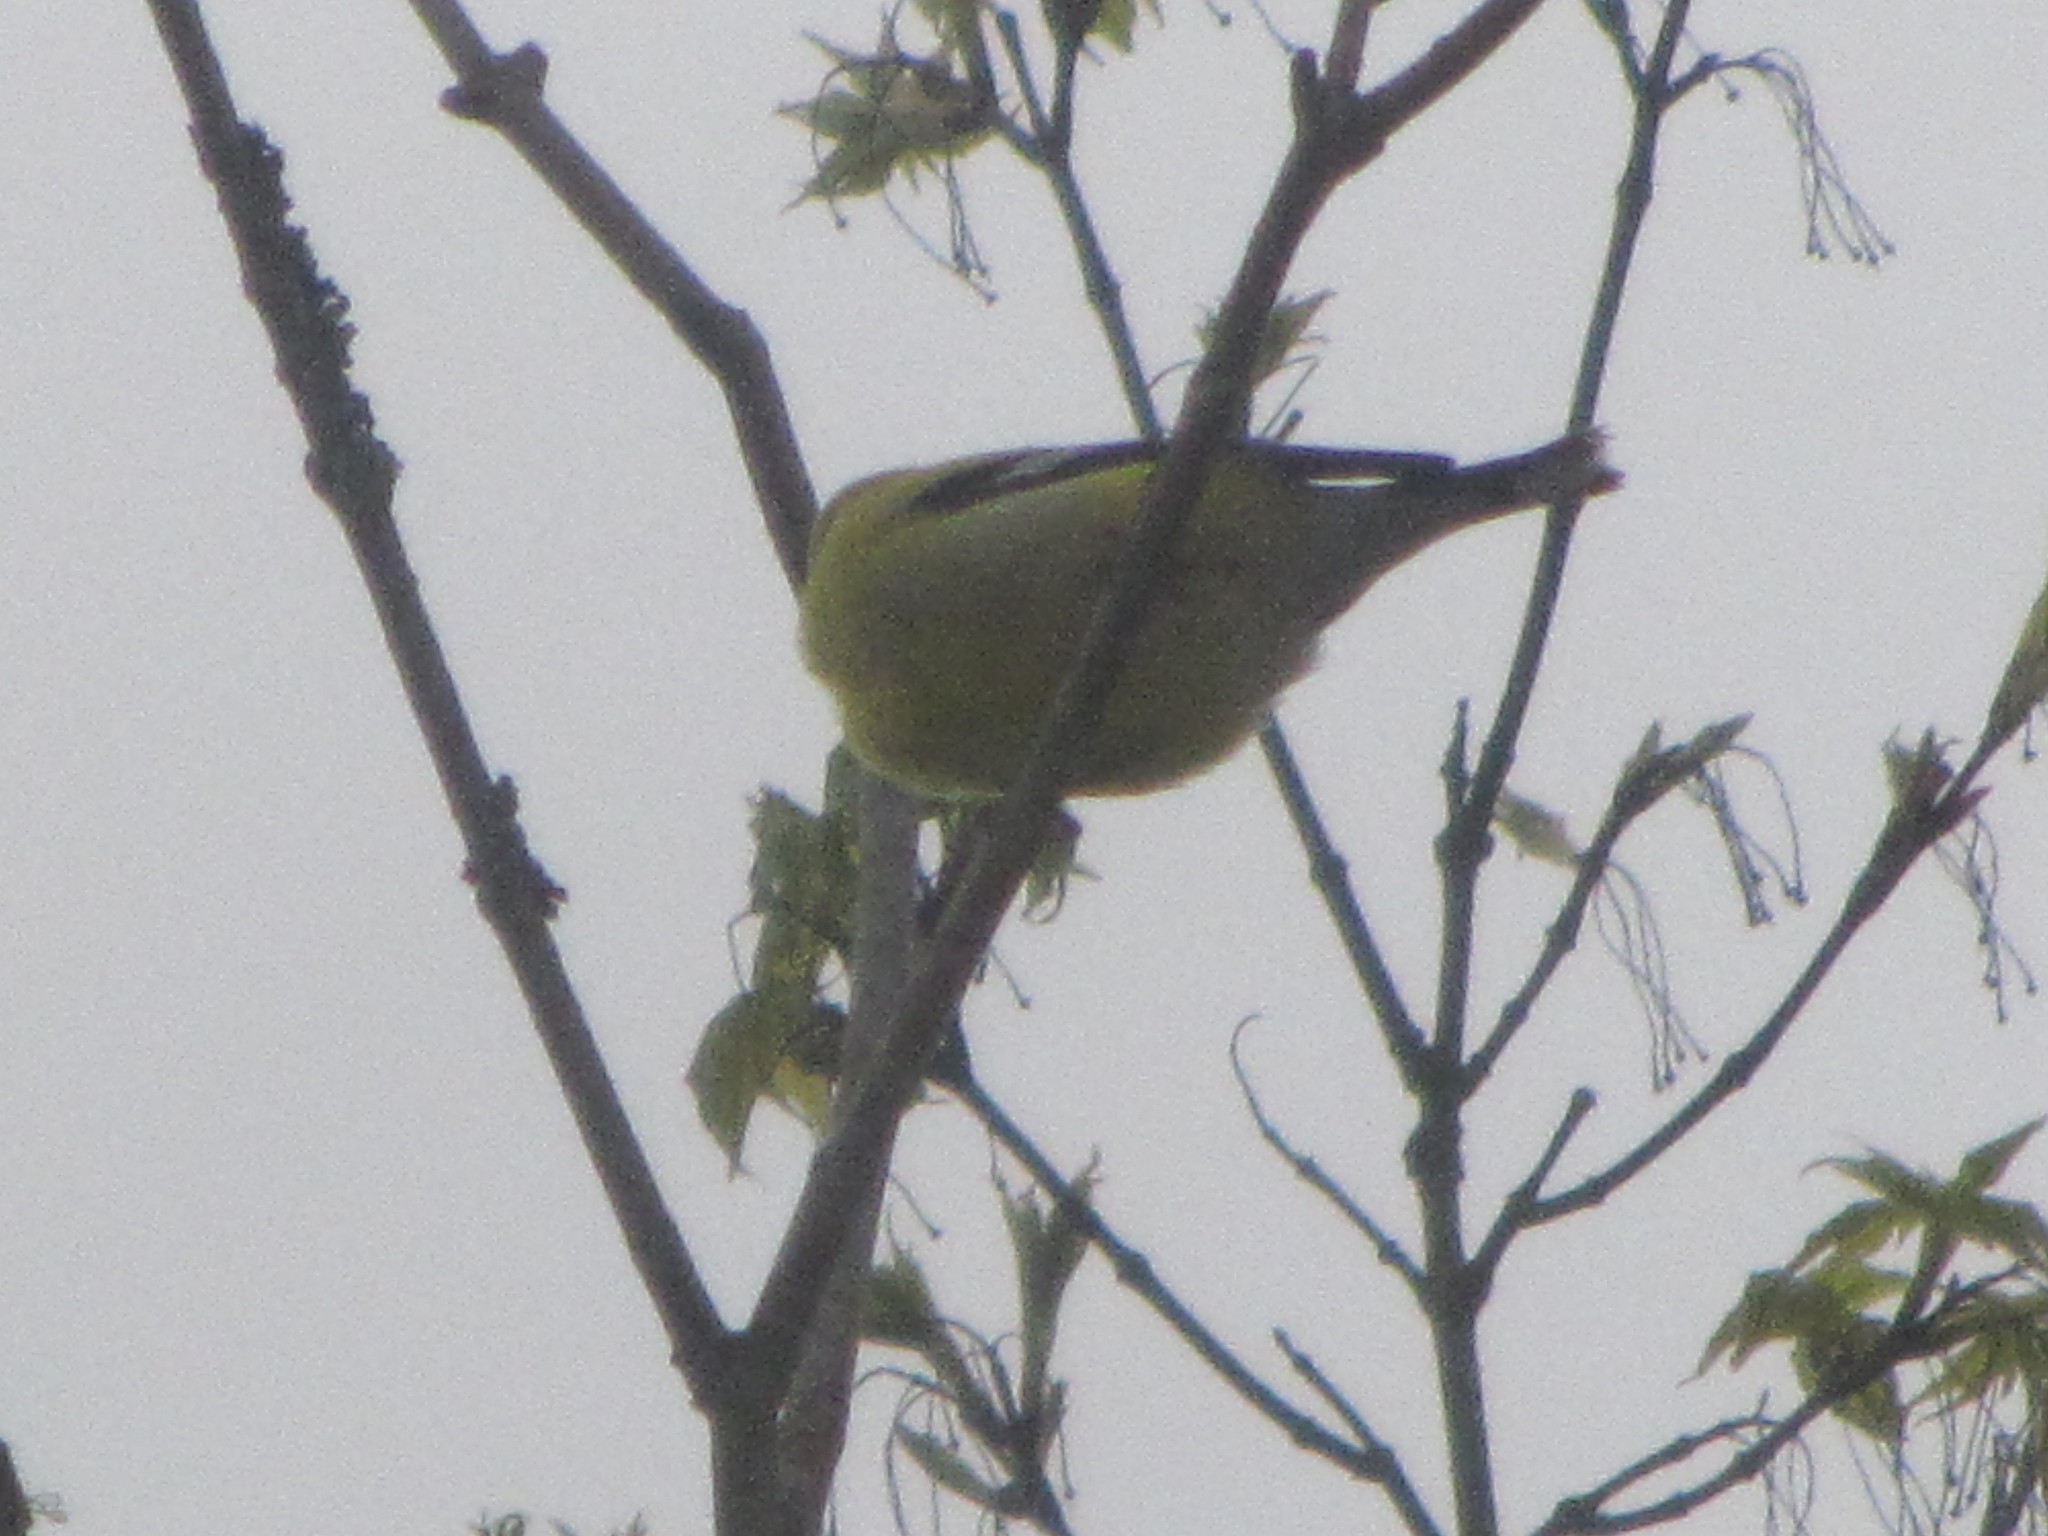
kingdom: Animalia
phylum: Chordata
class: Aves
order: Passeriformes
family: Fringillidae
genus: Spinus
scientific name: Spinus tristis
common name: American goldfinch
